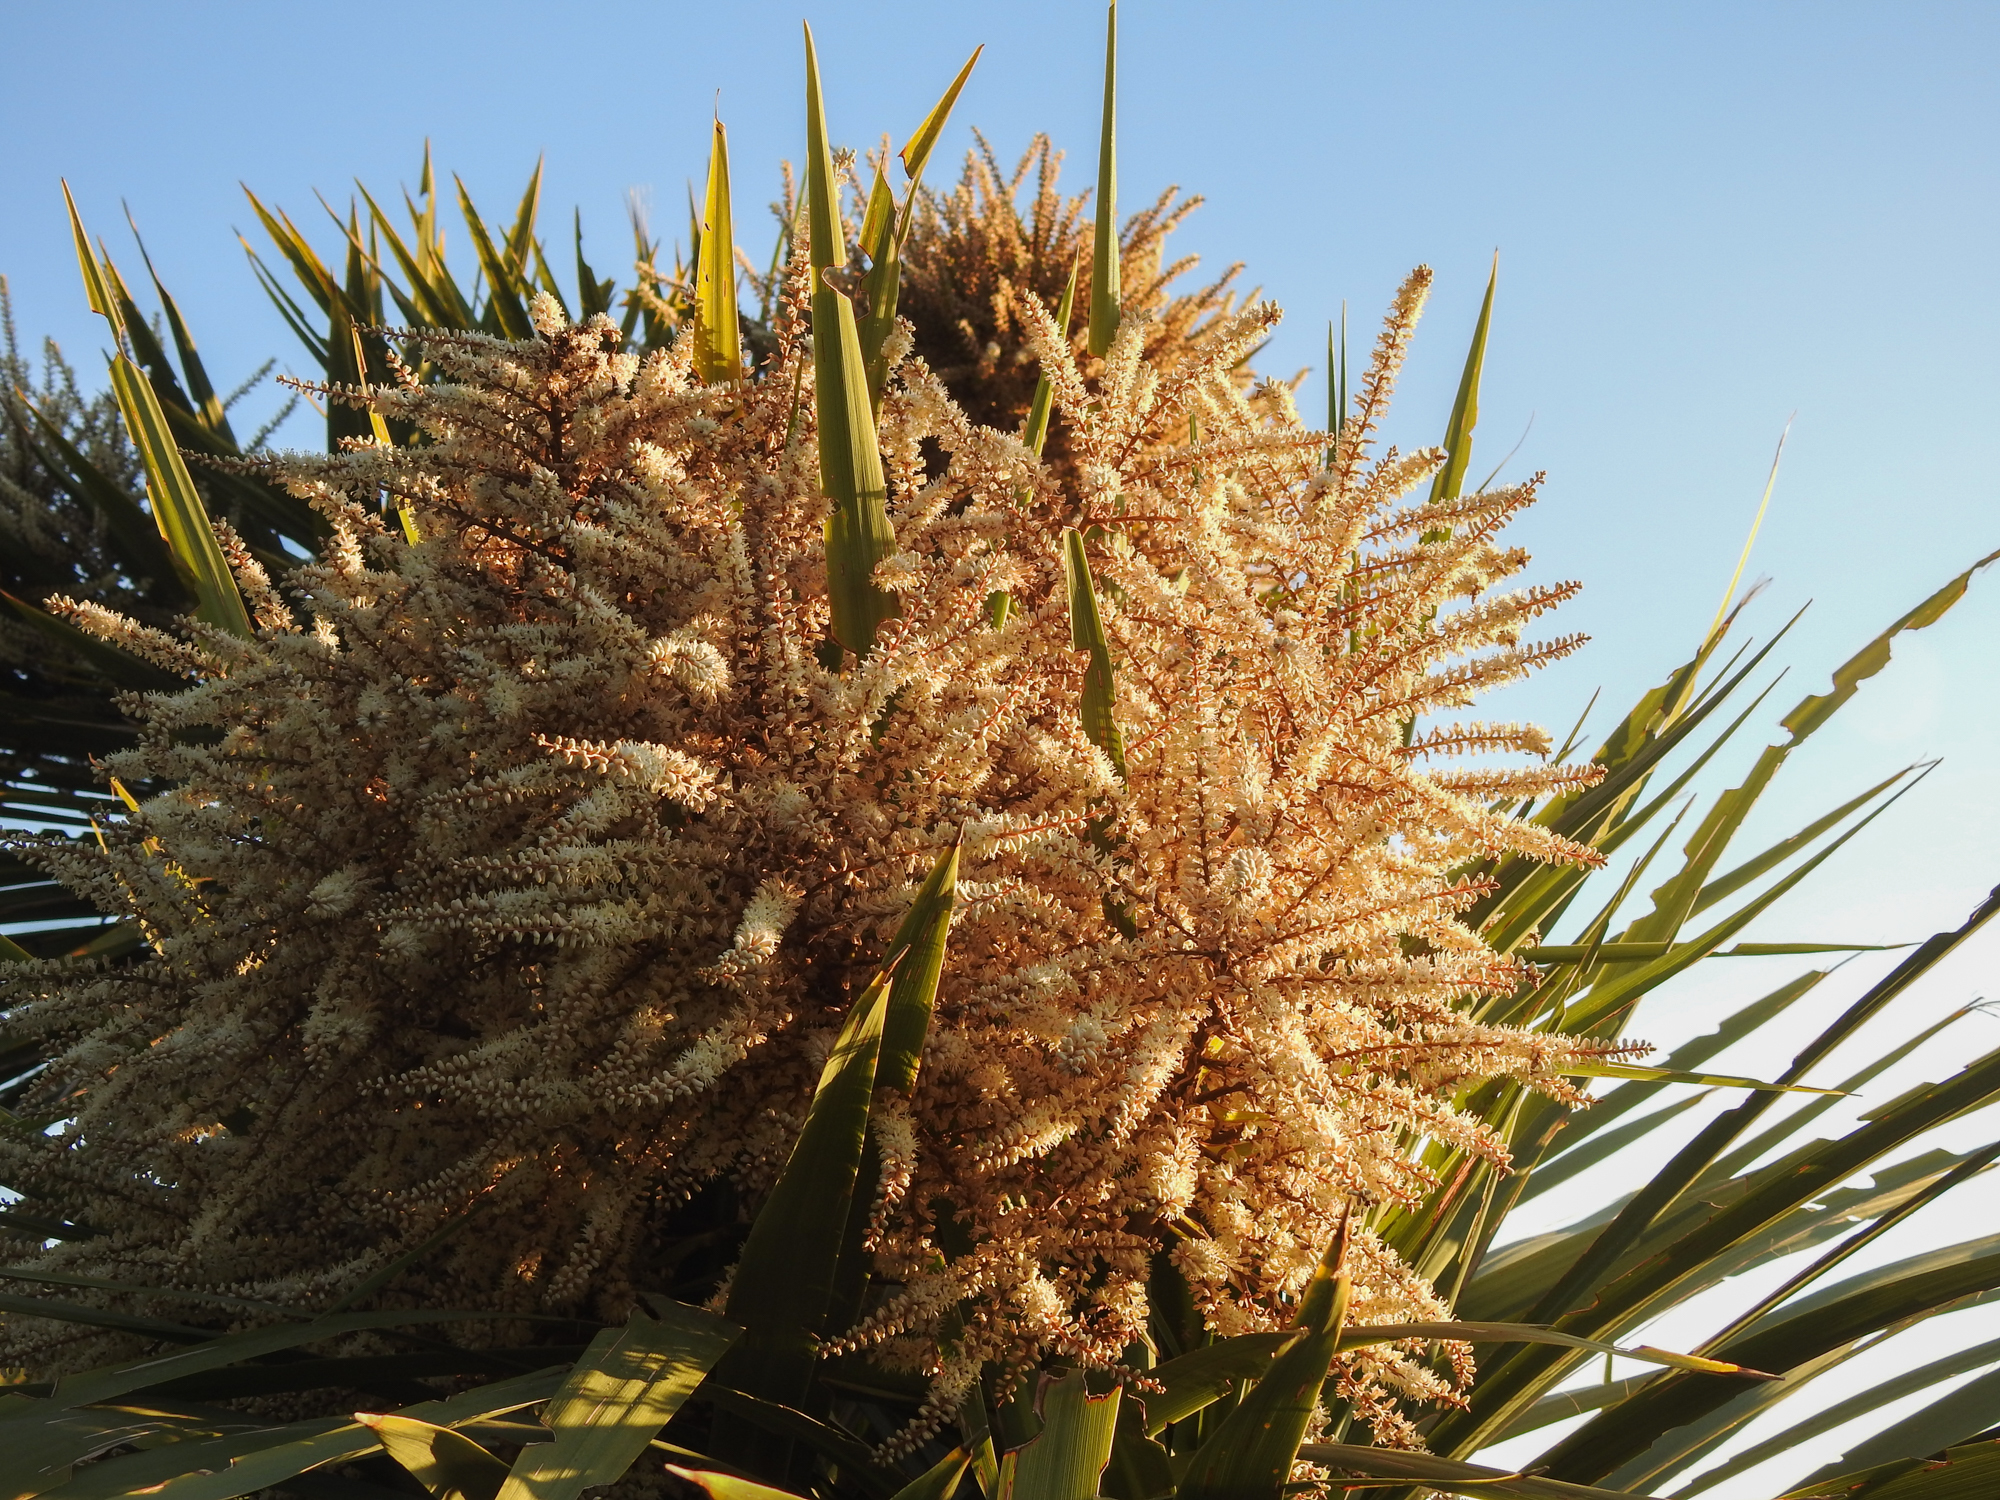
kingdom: Plantae
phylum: Tracheophyta
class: Liliopsida
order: Asparagales
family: Asparagaceae
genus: Cordyline
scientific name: Cordyline australis
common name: Cabbage-palm
